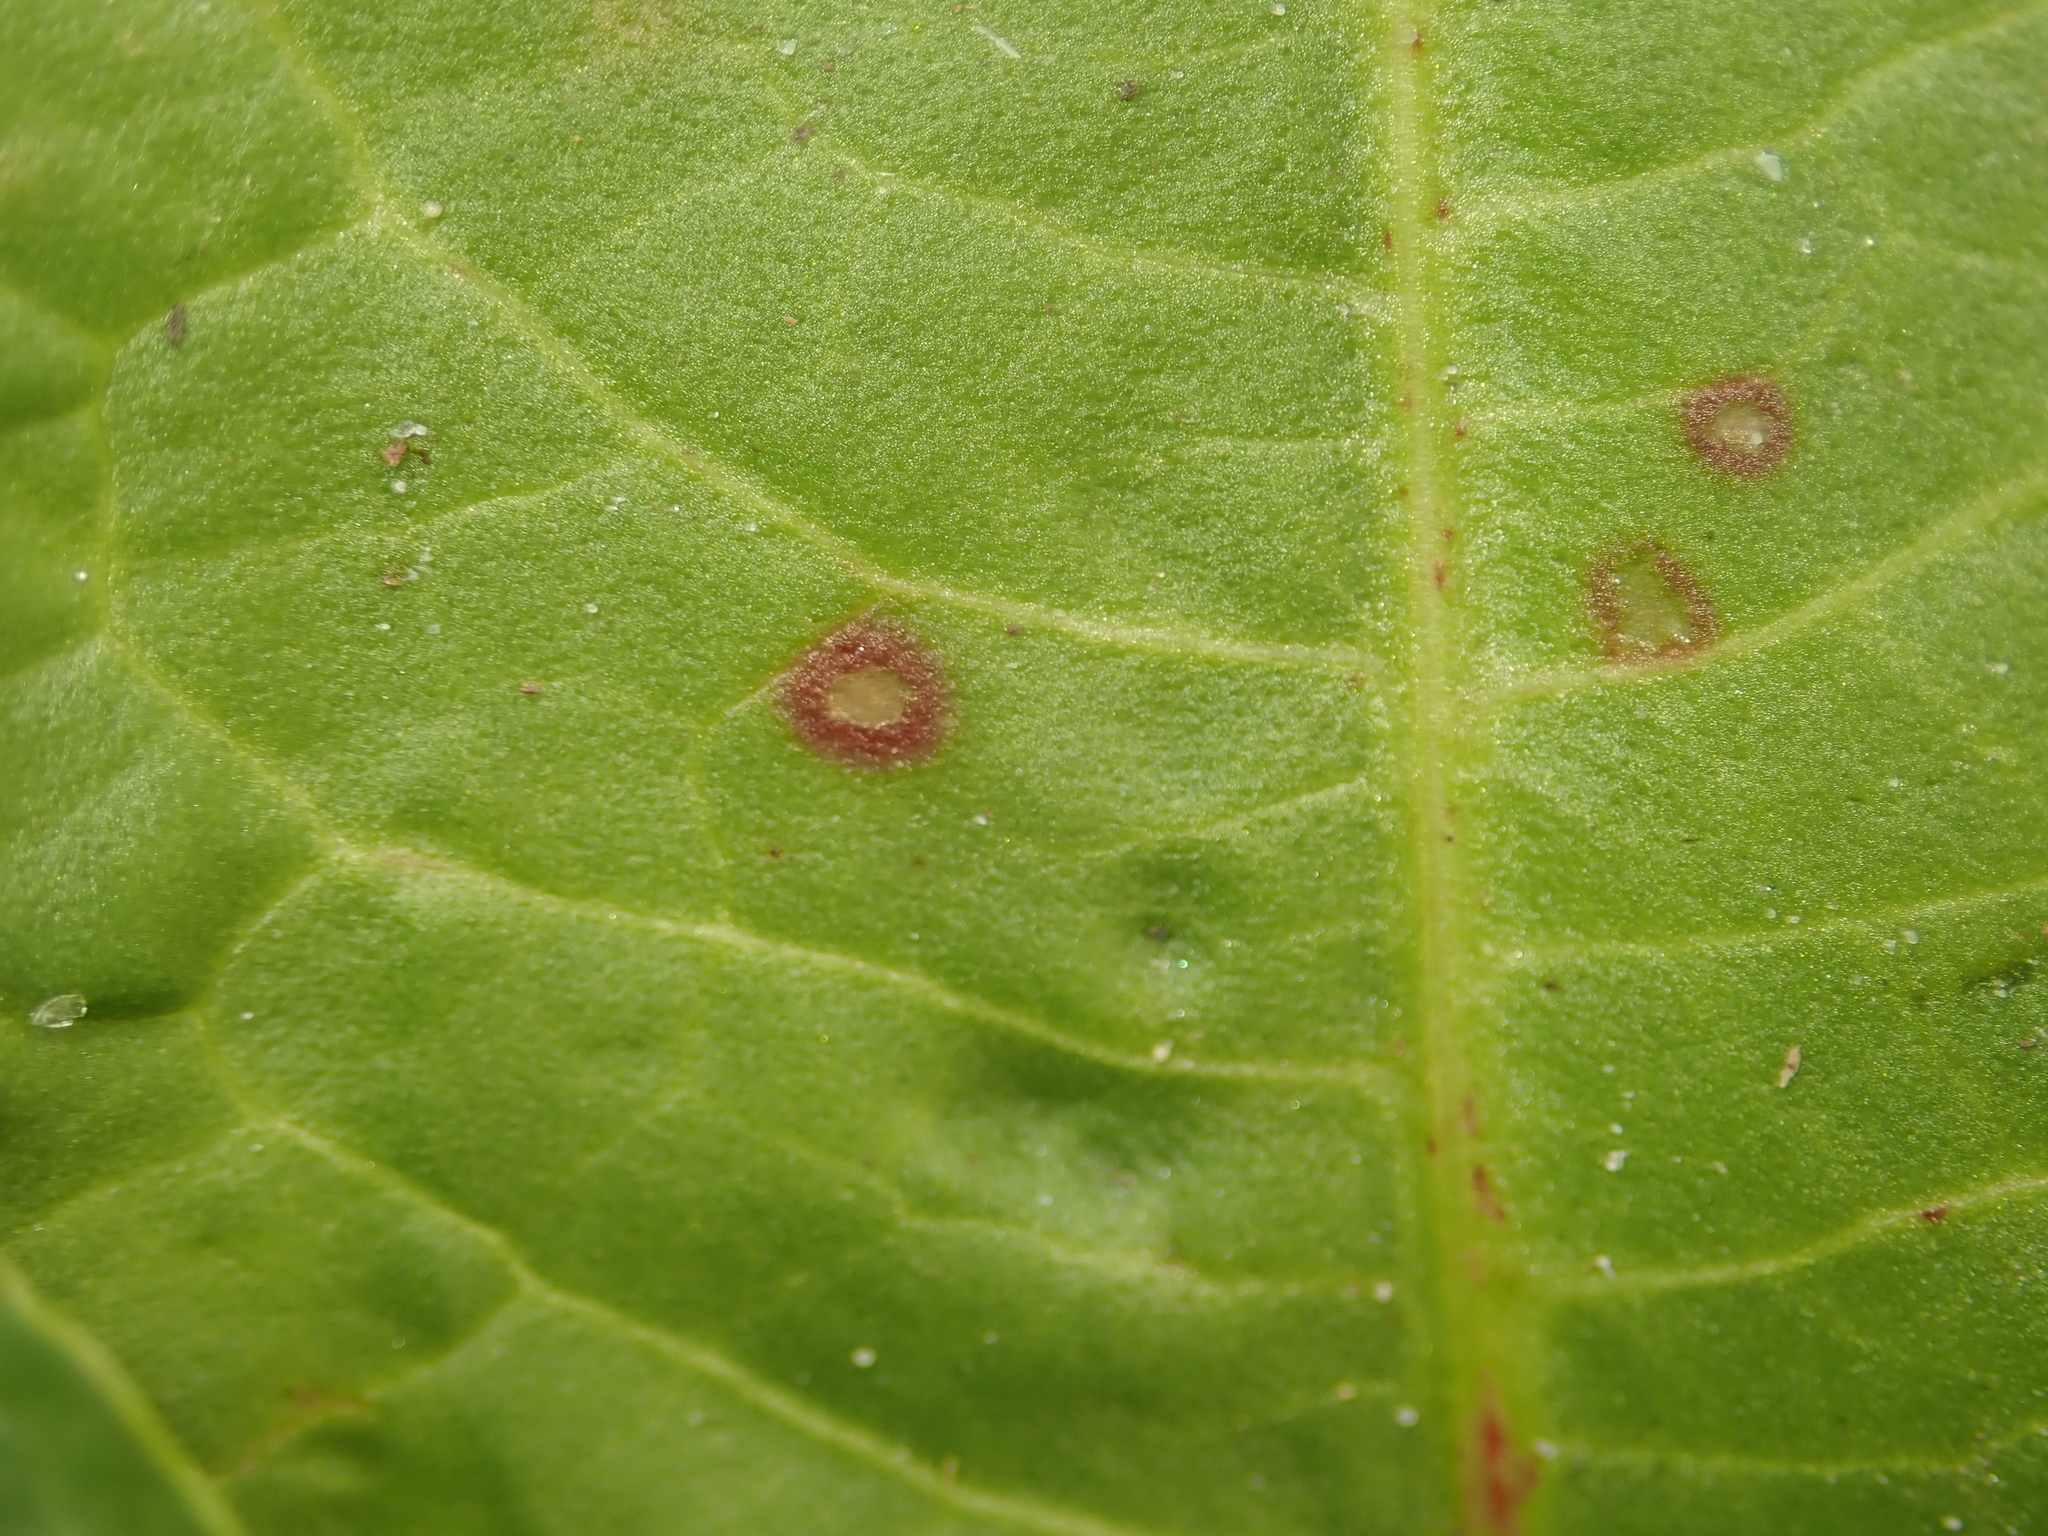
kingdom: Fungi
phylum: Ascomycota
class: Dothideomycetes
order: Mycosphaerellales
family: Mycosphaerellaceae
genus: Ramularia
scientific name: Ramularia rubella
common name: Red dock spot
